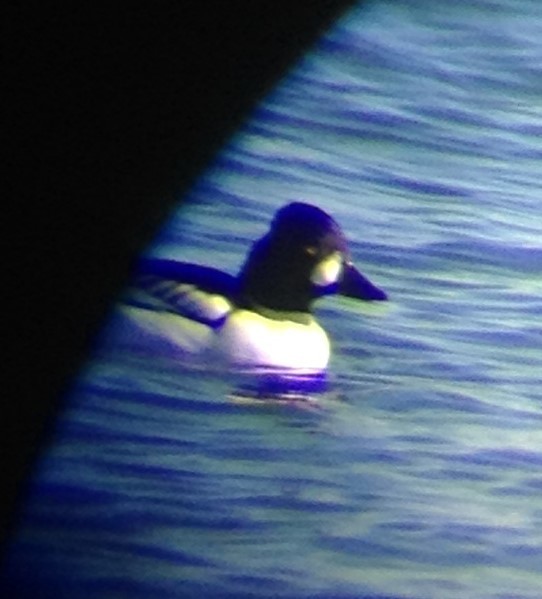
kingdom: Animalia
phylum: Chordata
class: Aves
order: Anseriformes
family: Anatidae
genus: Bucephala
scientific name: Bucephala
